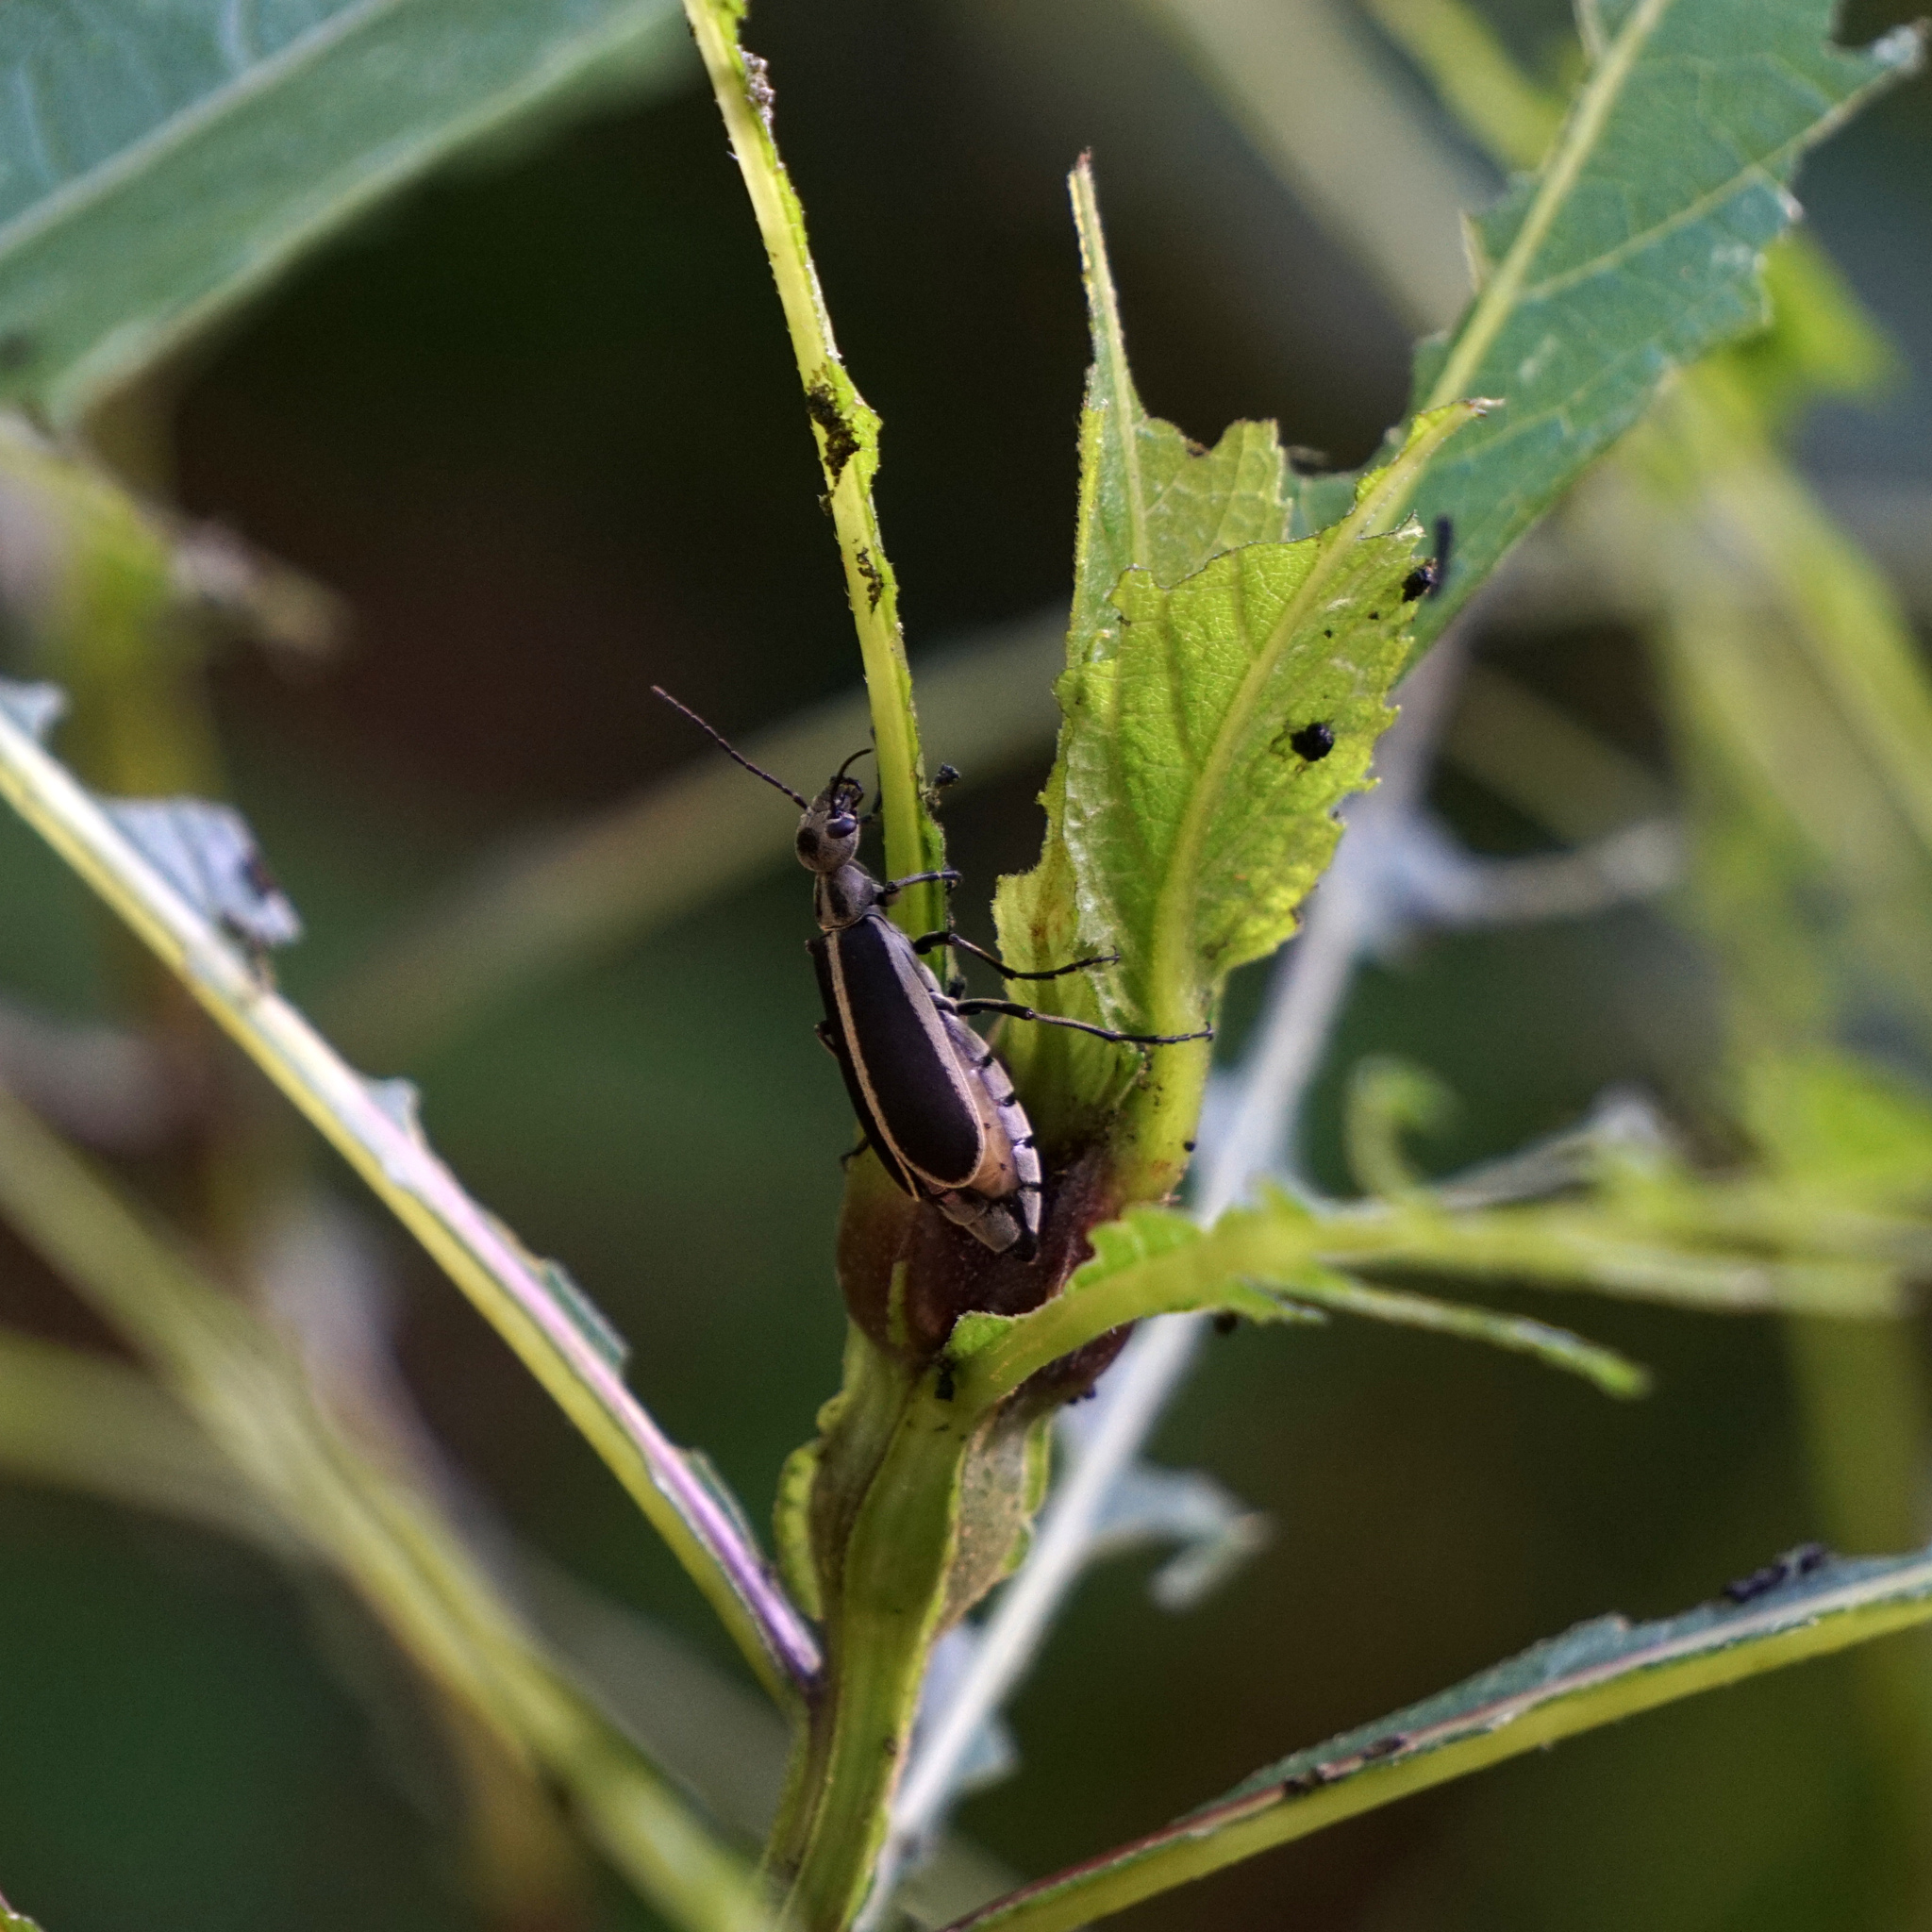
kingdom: Animalia
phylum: Arthropoda
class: Insecta
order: Coleoptera
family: Meloidae
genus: Epicauta
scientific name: Epicauta funebris
